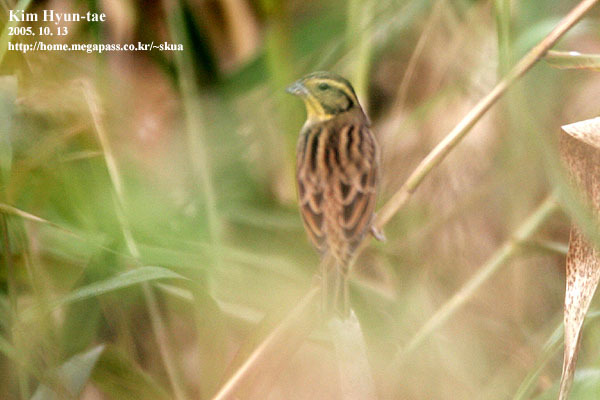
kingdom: Animalia
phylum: Chordata
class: Aves
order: Passeriformes
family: Emberizidae
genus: Emberiza
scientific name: Emberiza aureola
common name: Yellow-breasted bunting
